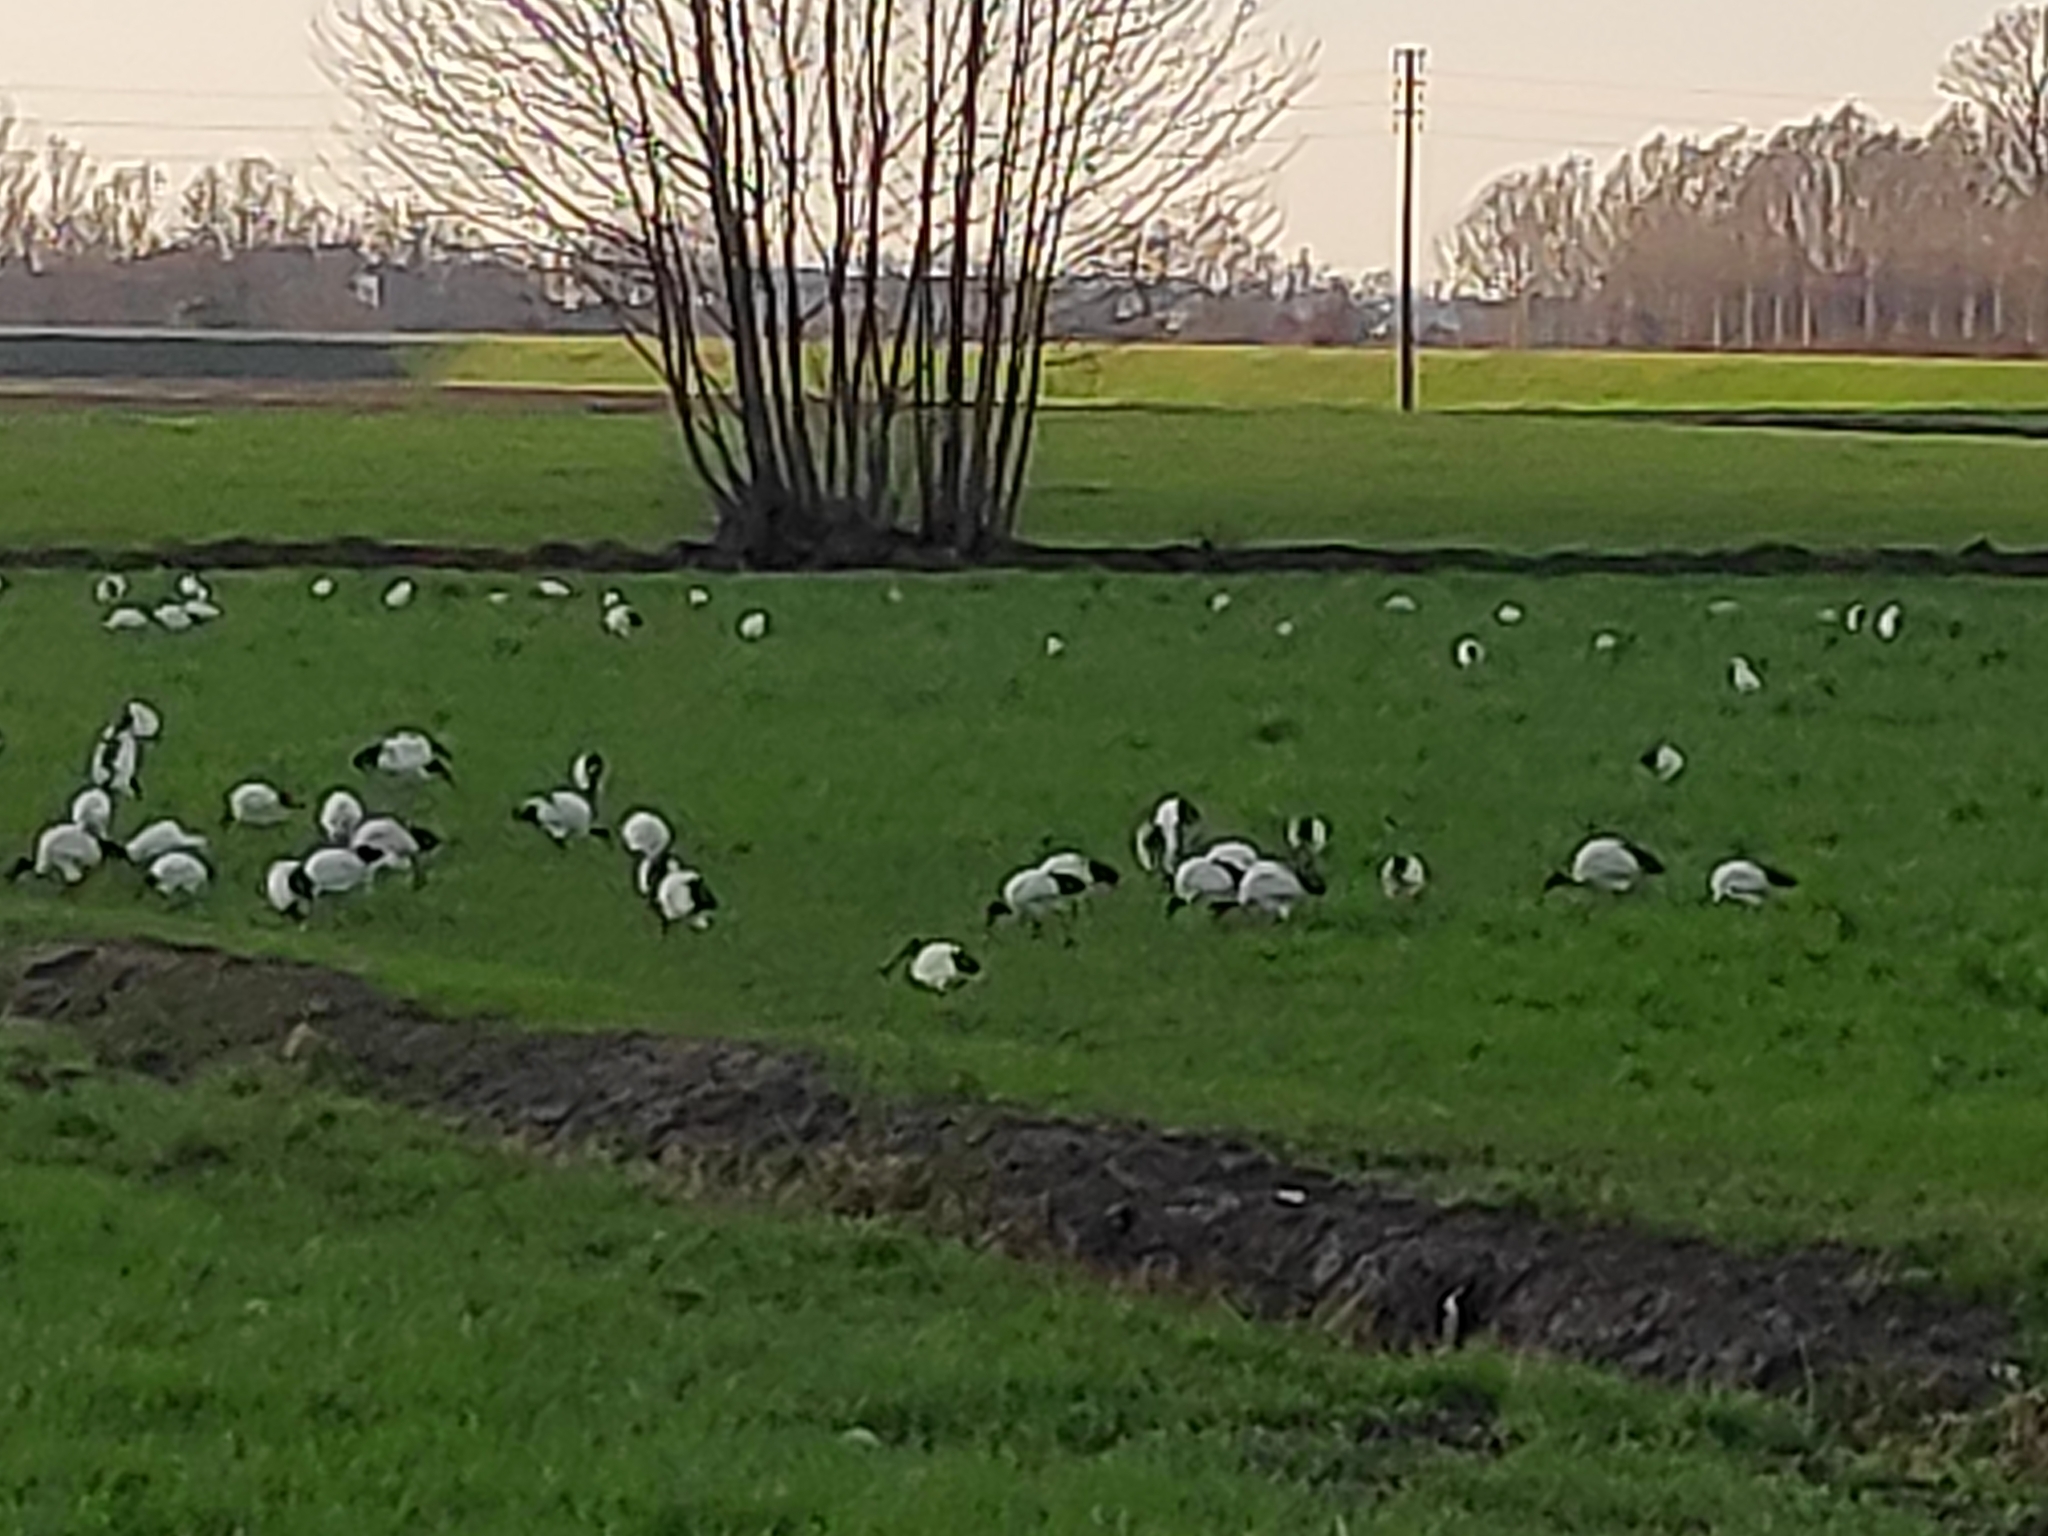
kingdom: Animalia
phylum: Chordata
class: Aves
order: Pelecaniformes
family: Threskiornithidae
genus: Threskiornis
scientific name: Threskiornis aethiopicus
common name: Sacred ibis
